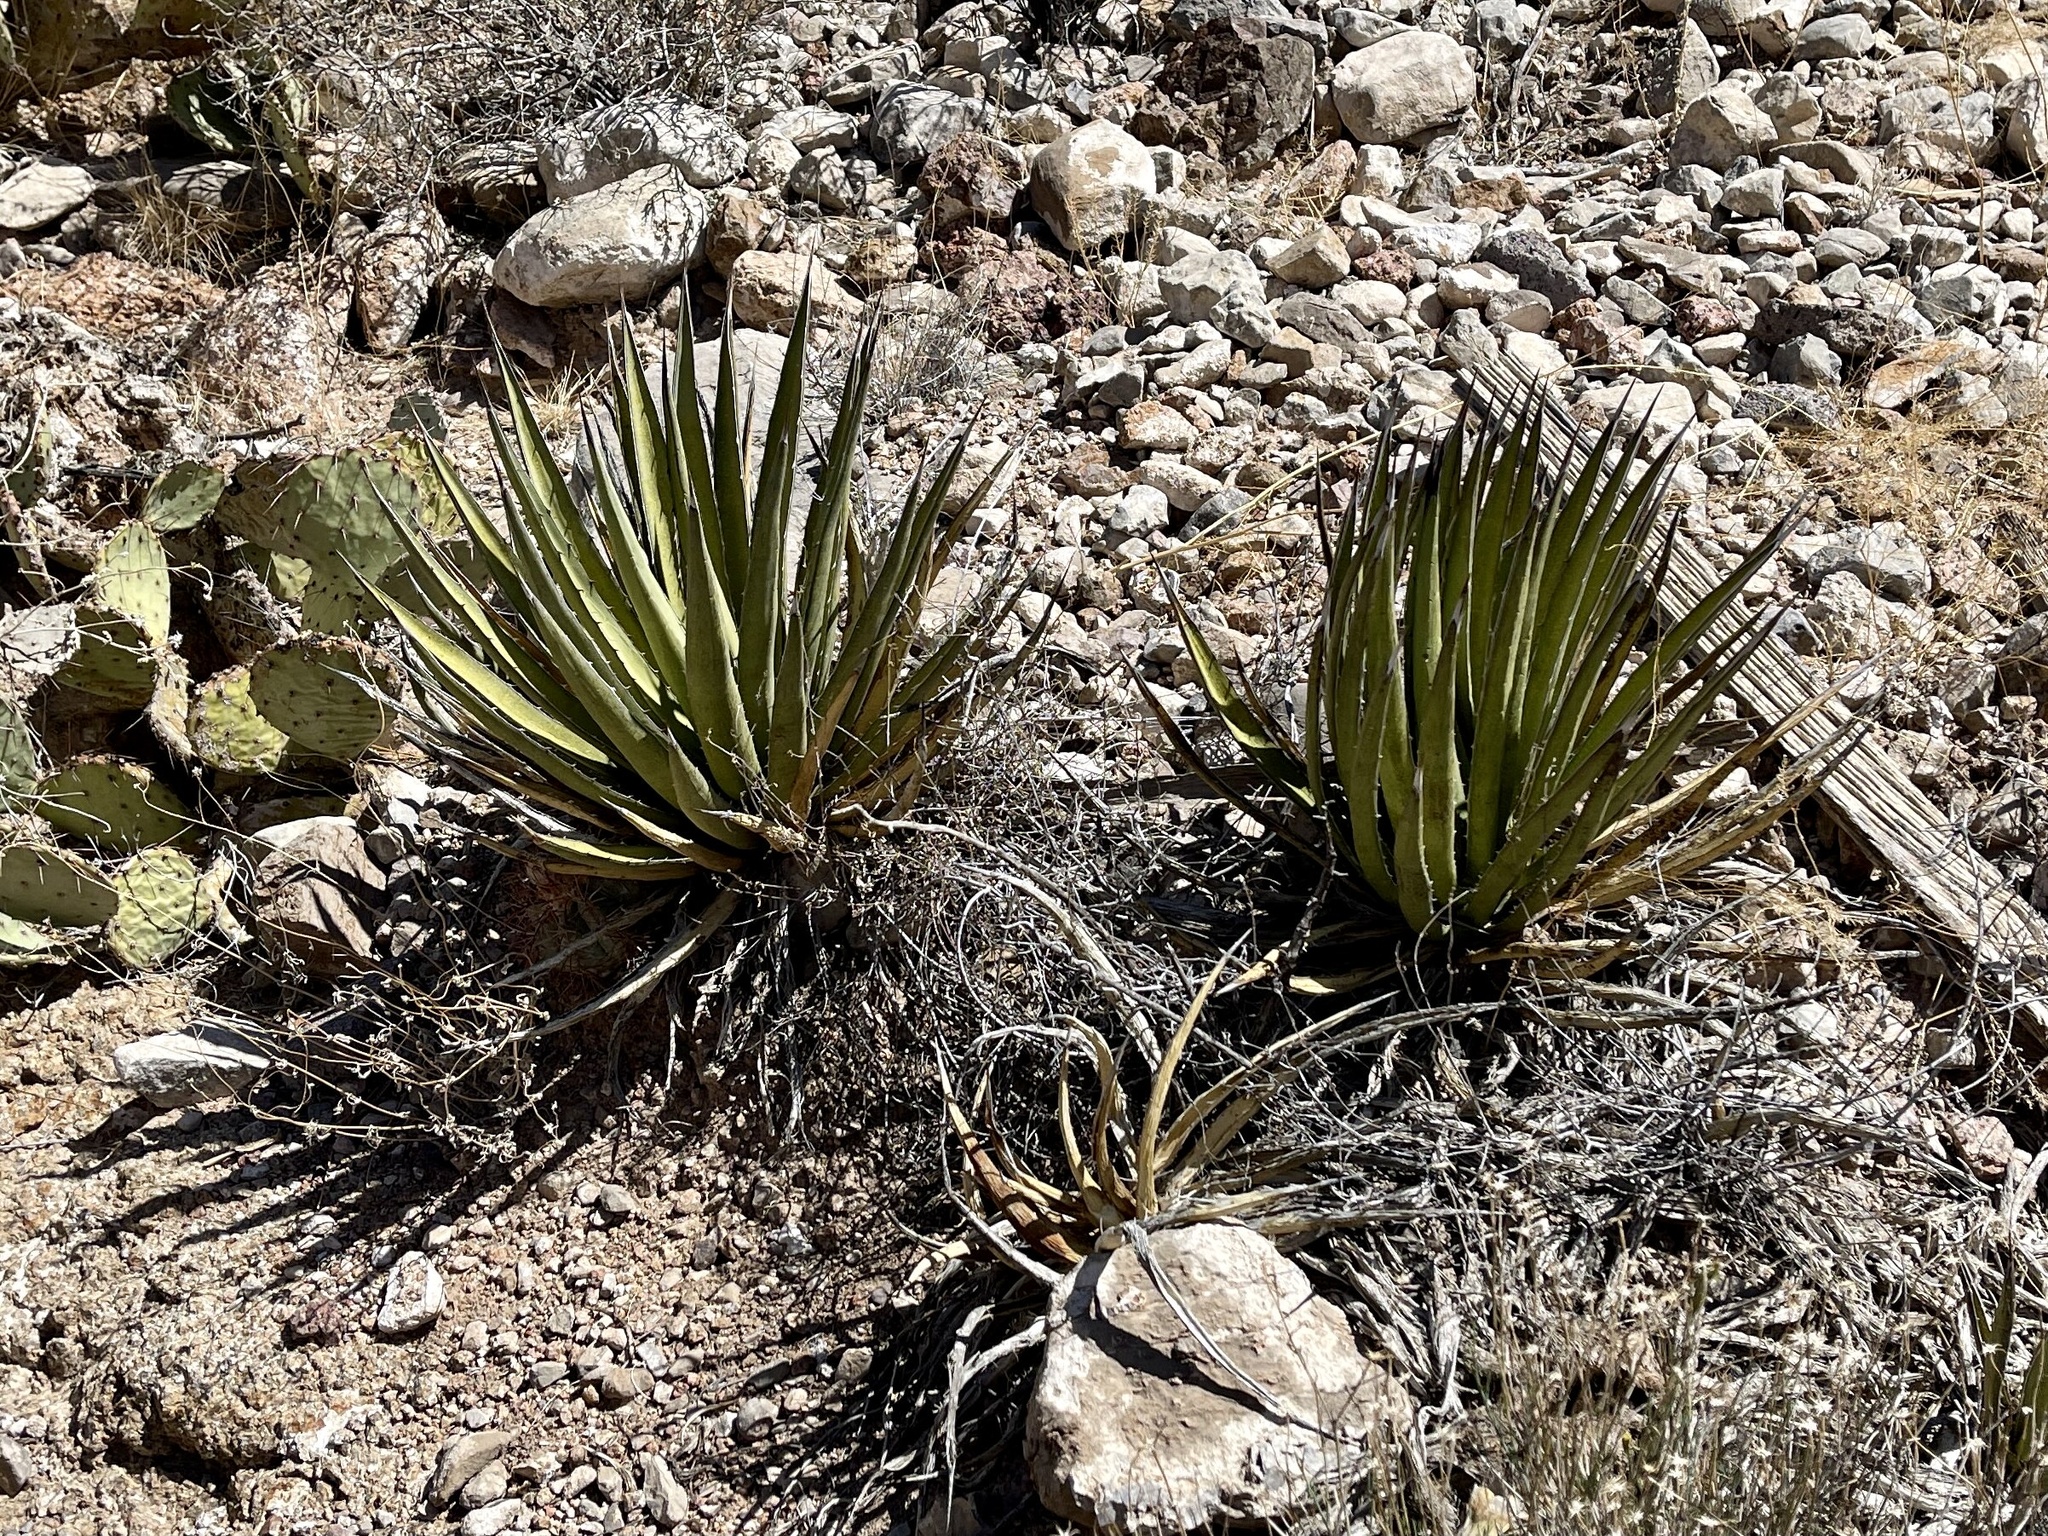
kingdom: Plantae
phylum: Tracheophyta
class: Liliopsida
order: Asparagales
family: Asparagaceae
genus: Agave
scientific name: Agave lechuguilla
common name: Lecheguilla agave
